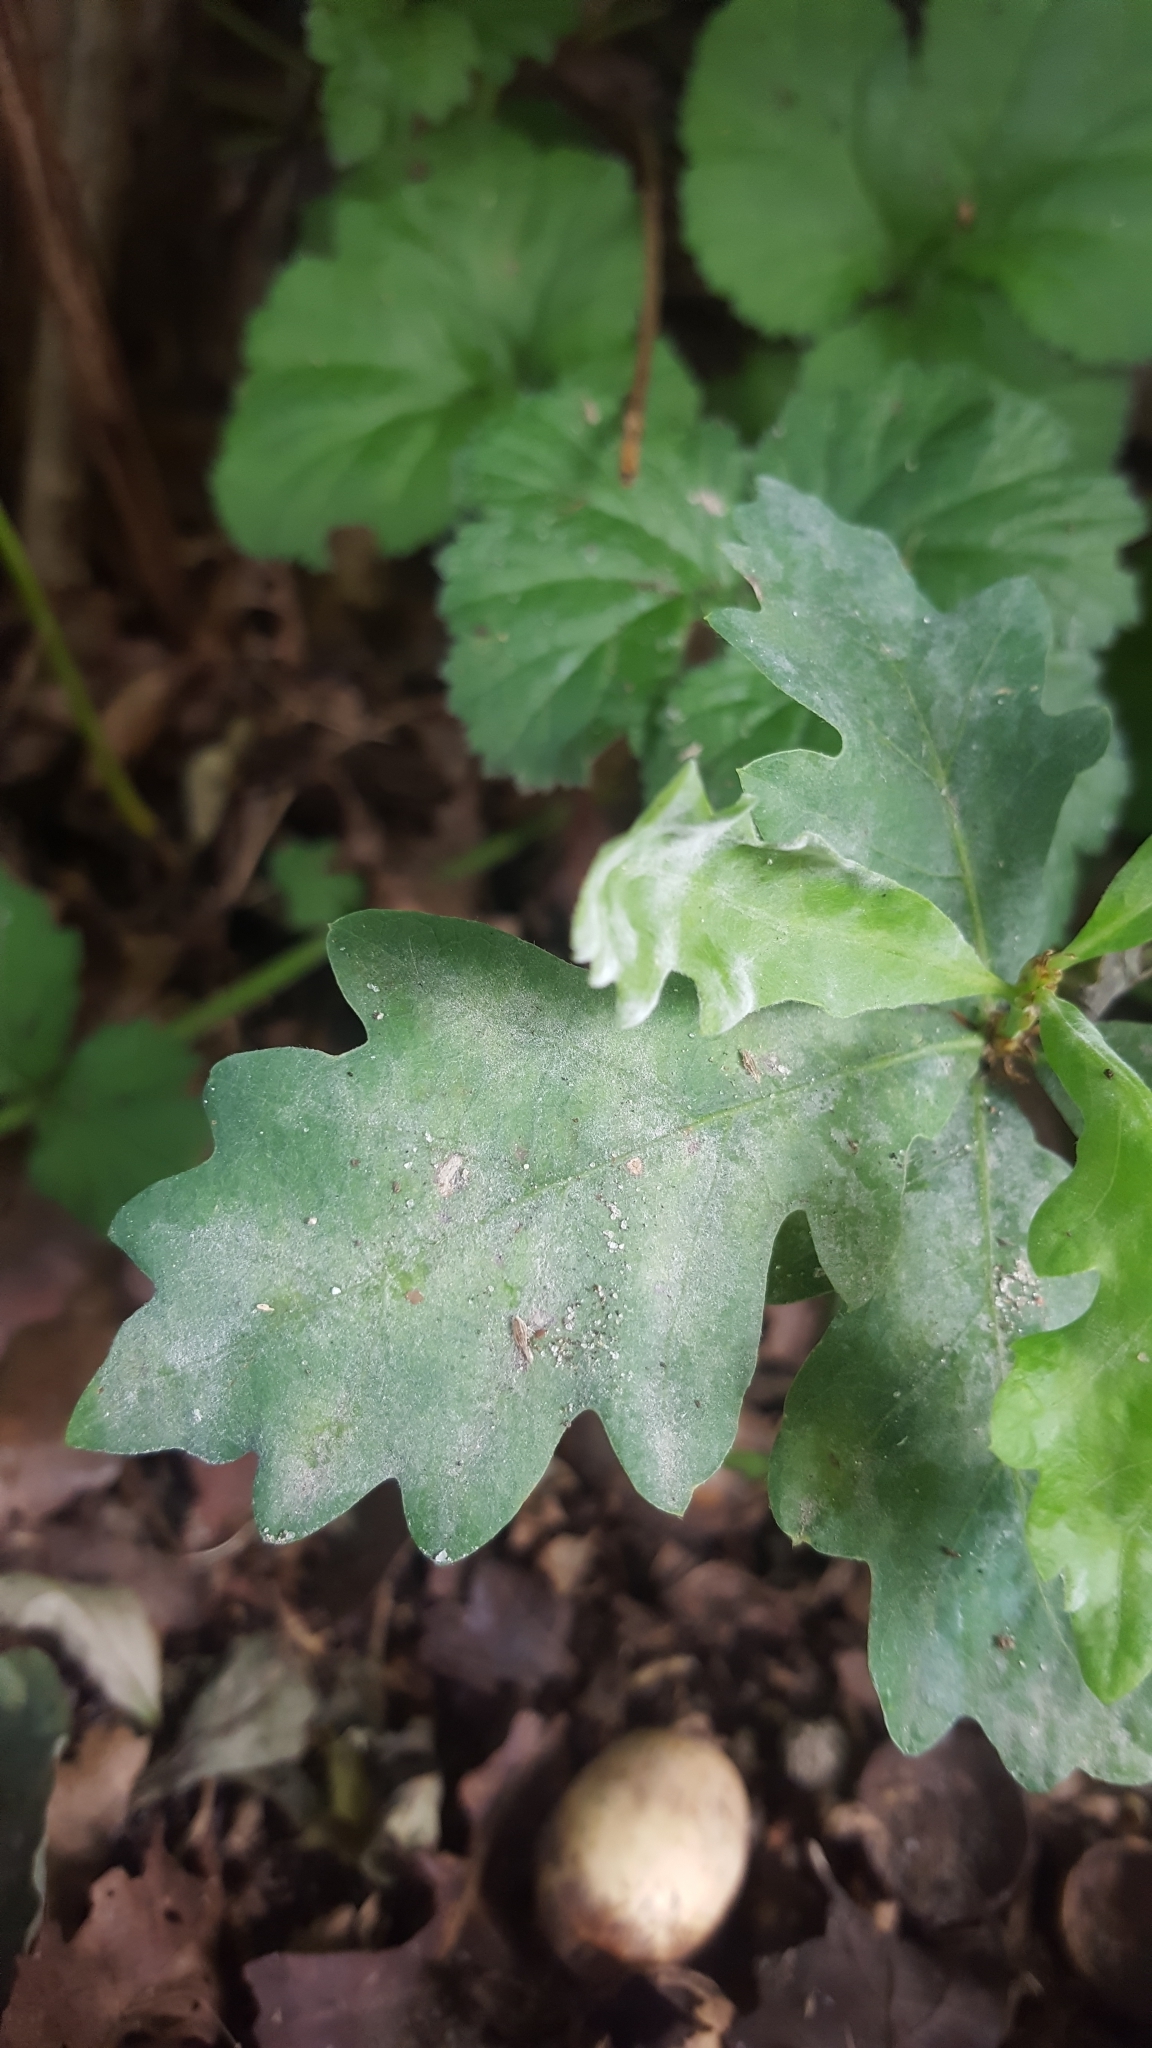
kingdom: Fungi
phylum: Ascomycota
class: Leotiomycetes
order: Helotiales
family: Erysiphaceae
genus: Erysiphe
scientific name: Erysiphe
